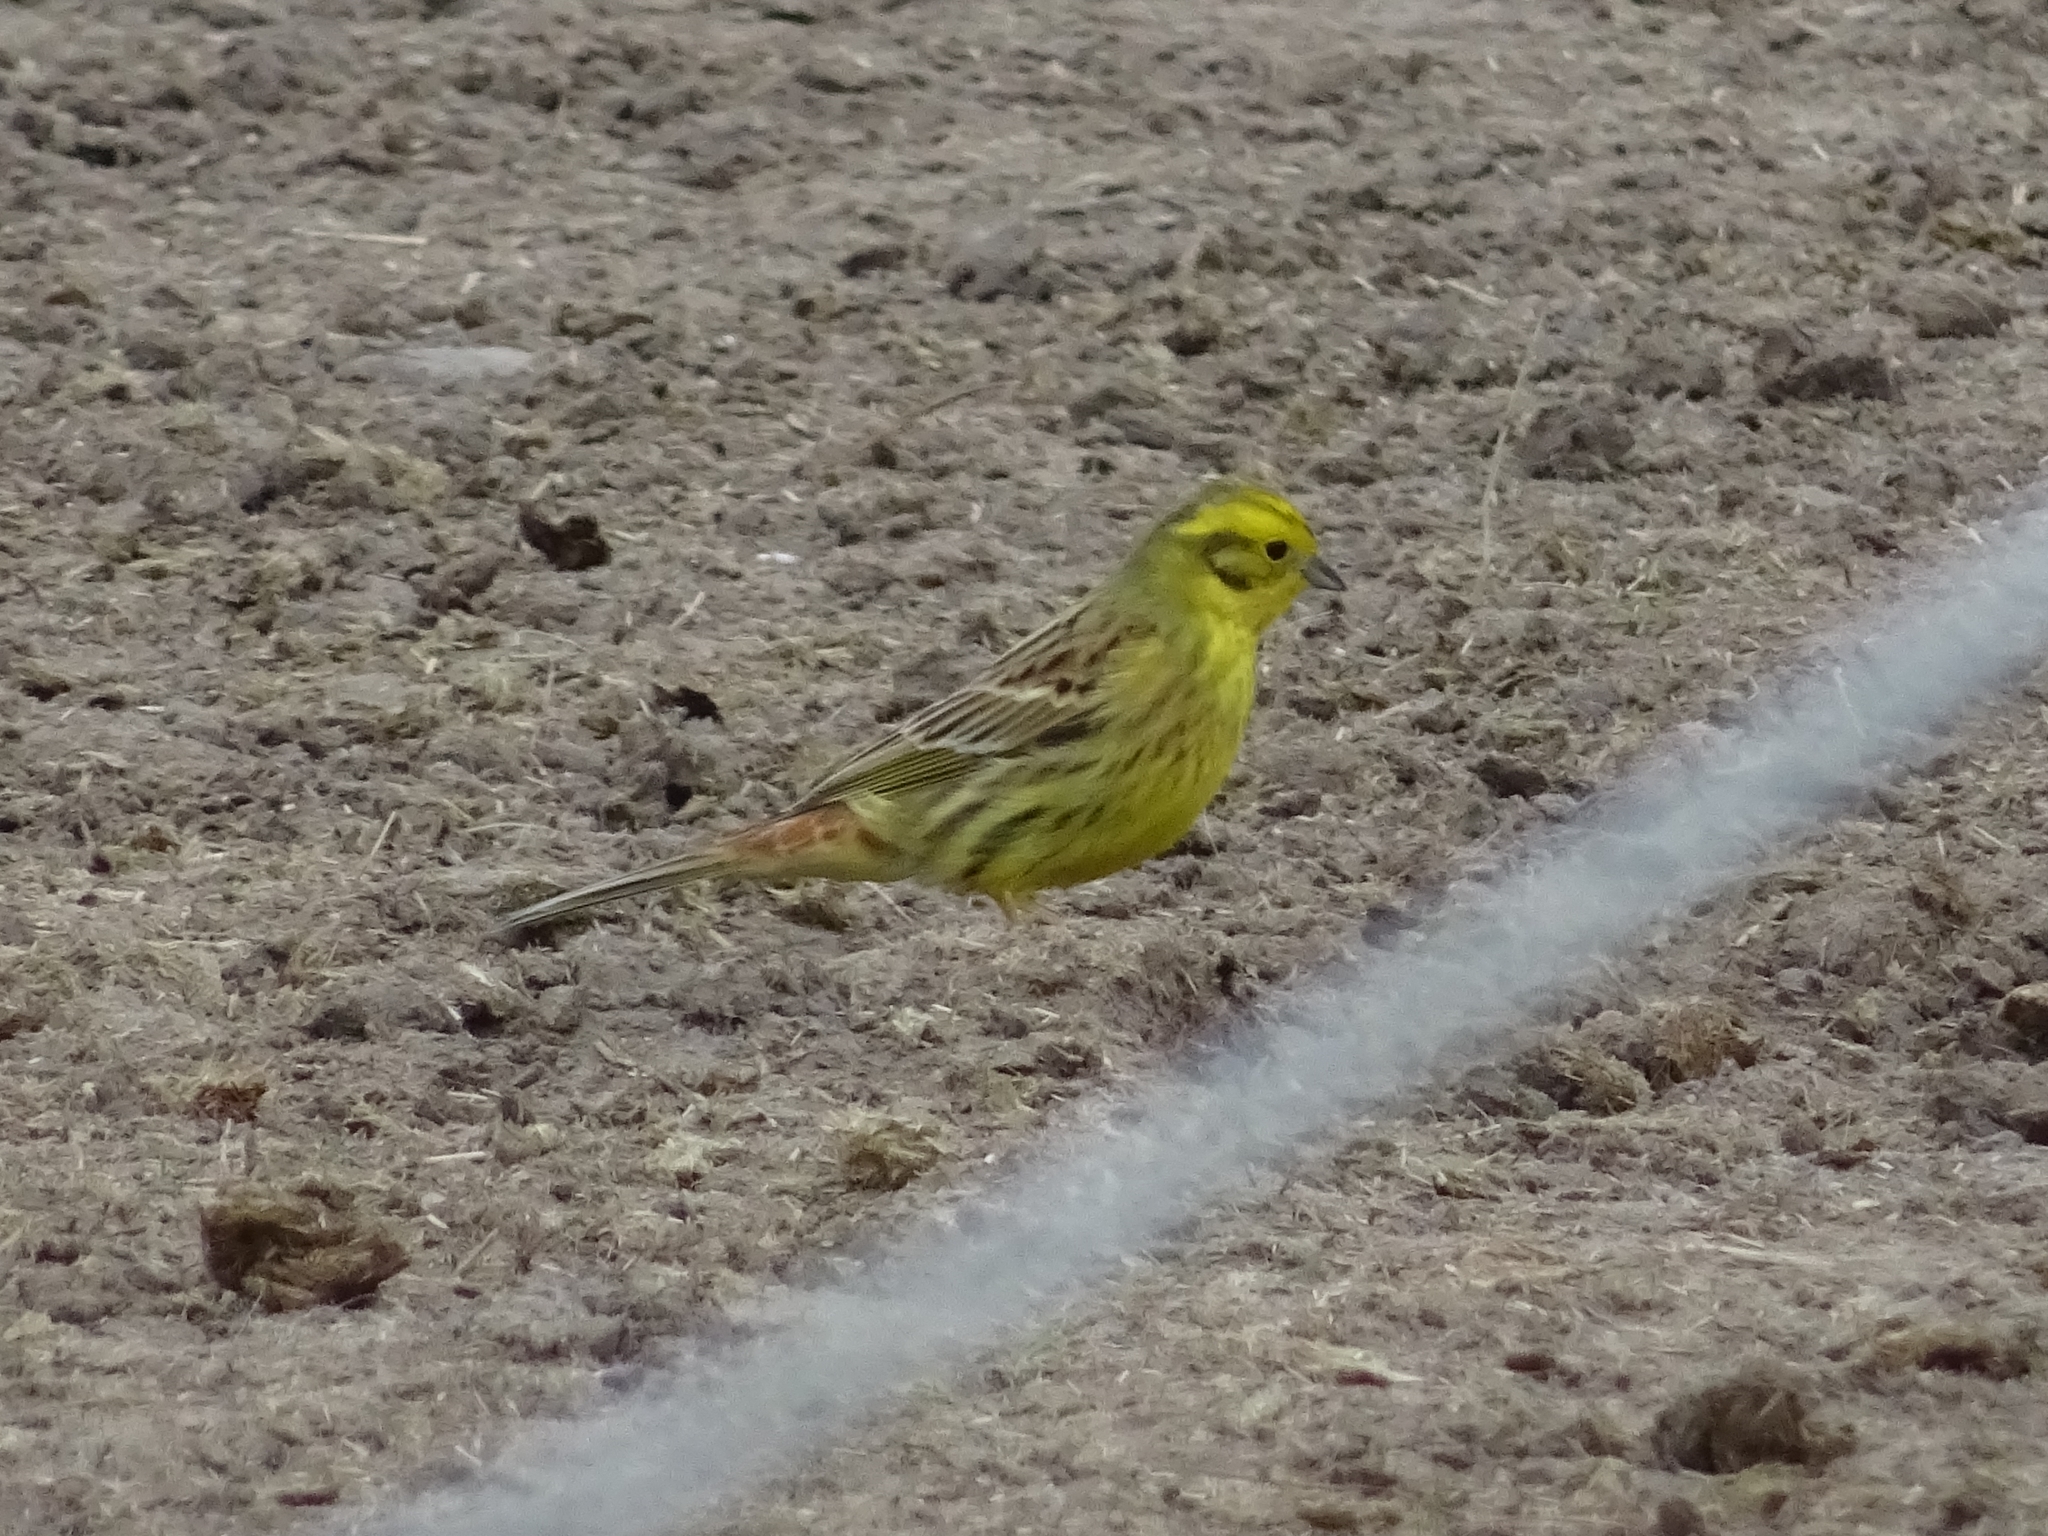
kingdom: Animalia
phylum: Chordata
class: Aves
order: Passeriformes
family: Emberizidae
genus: Emberiza
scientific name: Emberiza citrinella
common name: Yellowhammer
